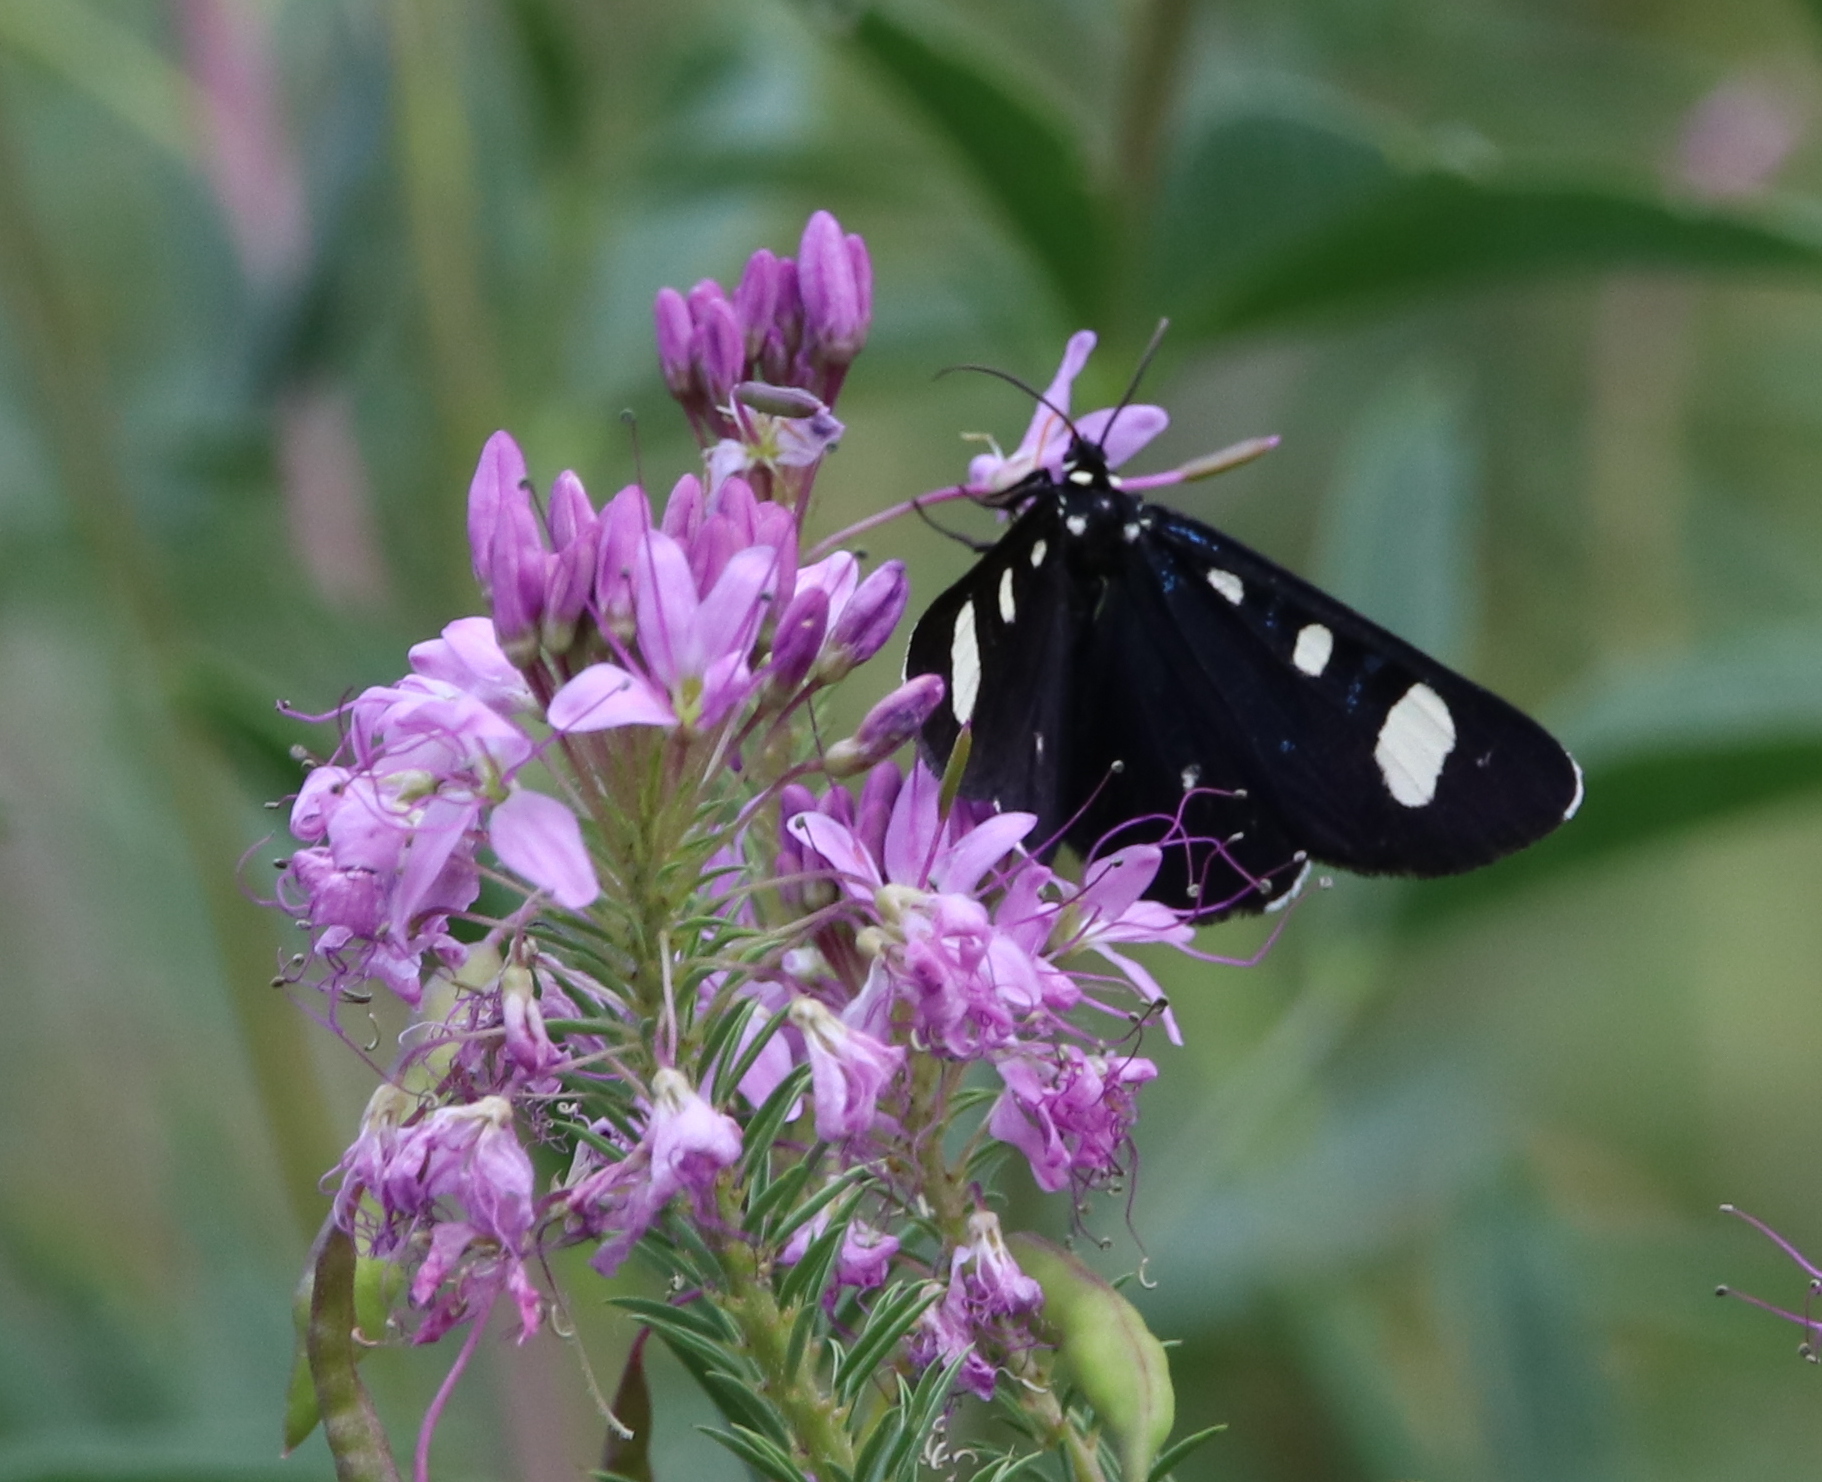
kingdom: Animalia
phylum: Arthropoda
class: Insecta
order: Lepidoptera
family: Noctuidae
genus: Alypiodes
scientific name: Alypiodes bimaculata
